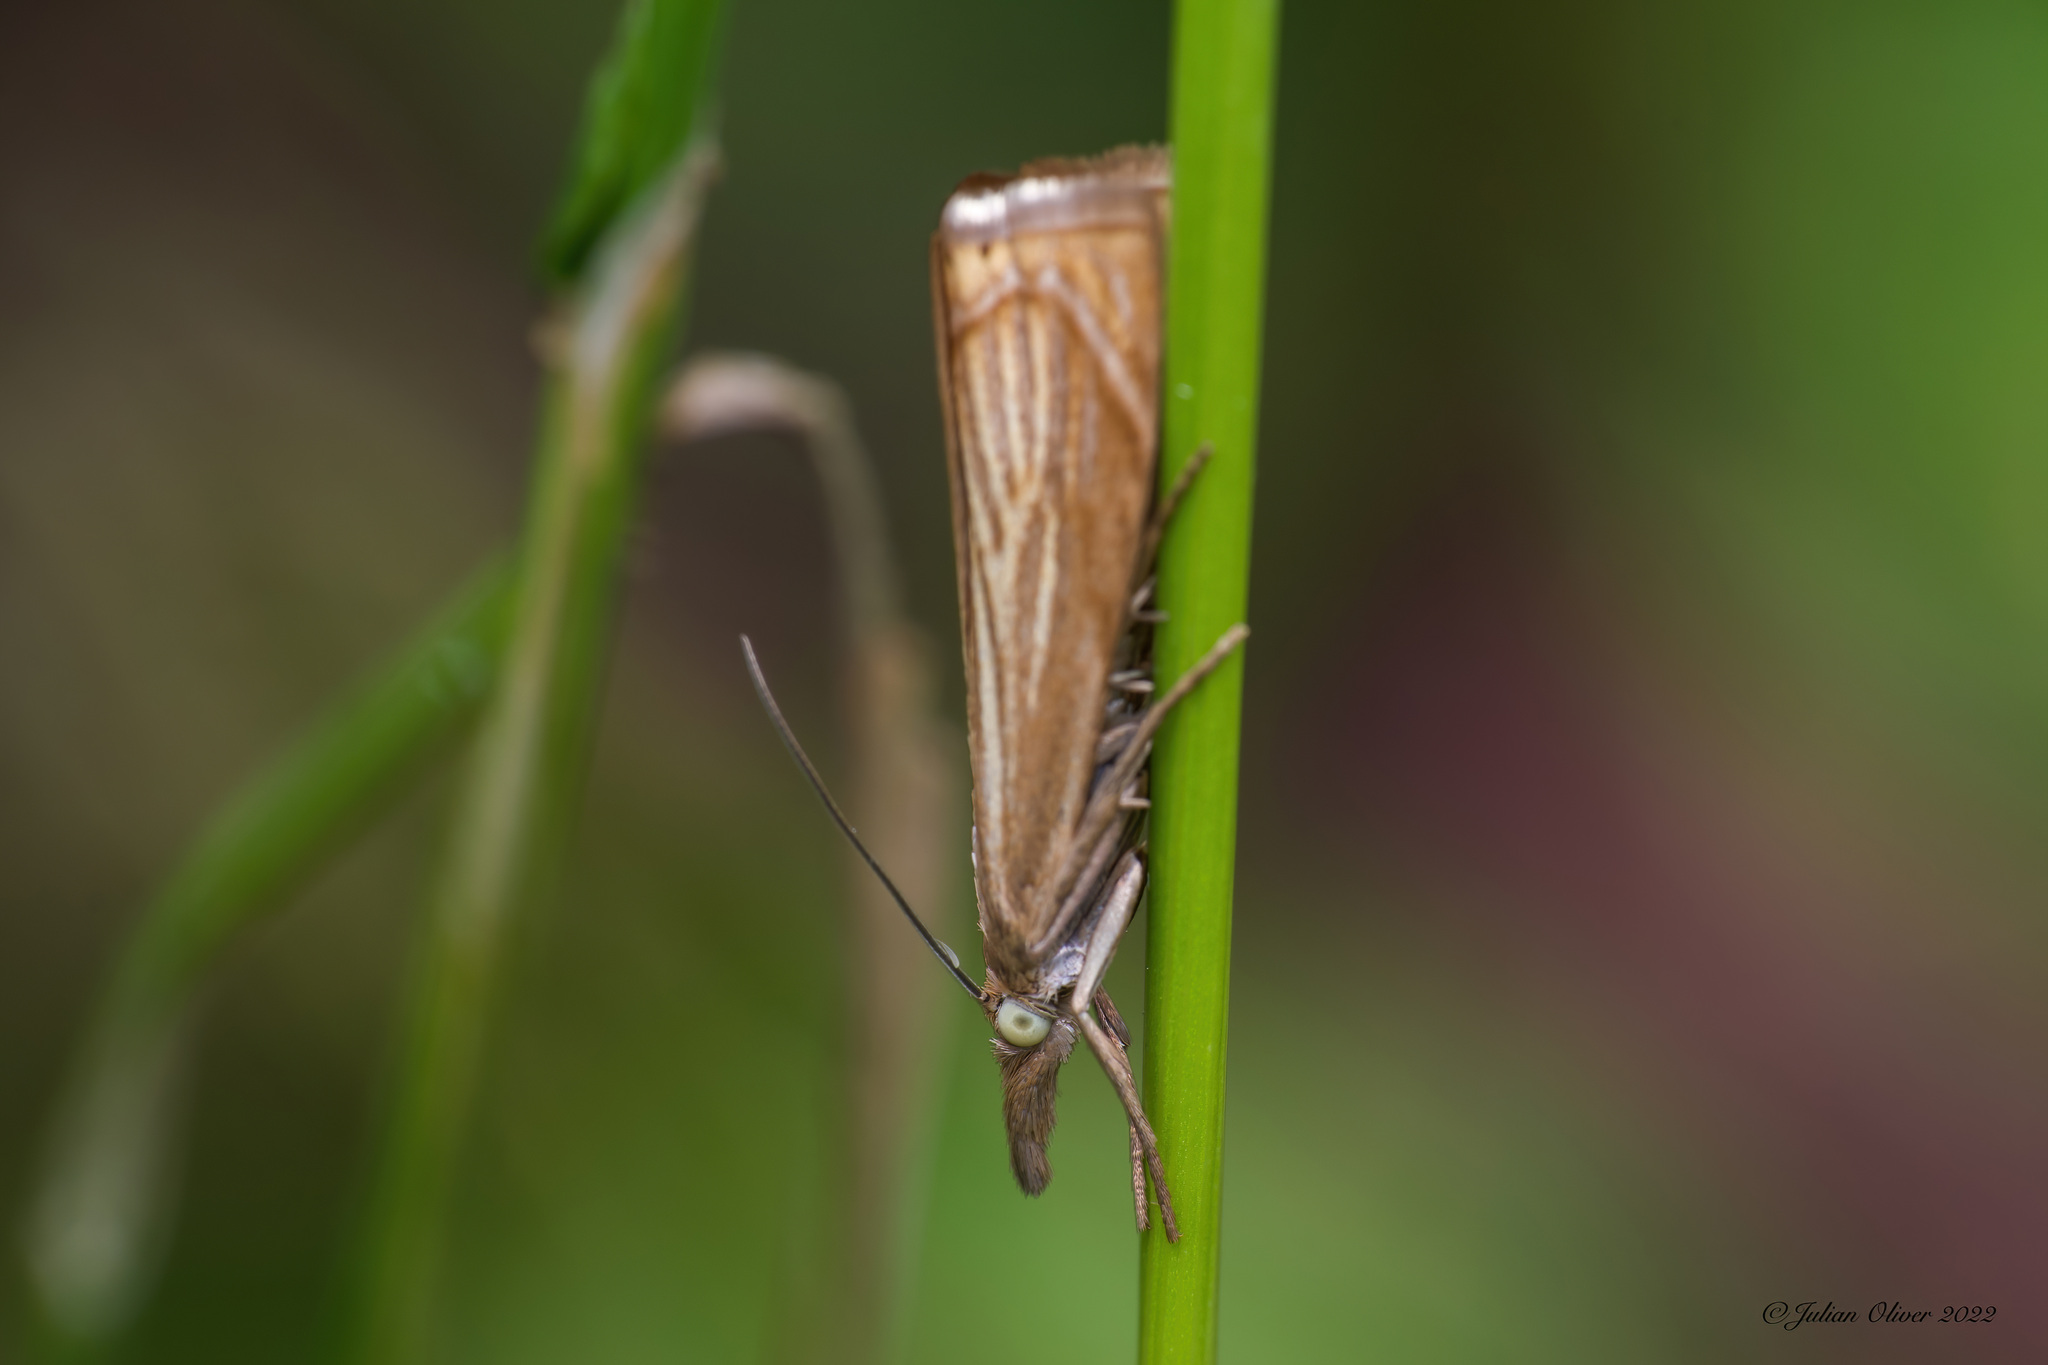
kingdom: Animalia
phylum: Arthropoda
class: Insecta
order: Lepidoptera
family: Crambidae
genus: Chrysoteuchia
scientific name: Chrysoteuchia culmella
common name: Garden grass-veneer
